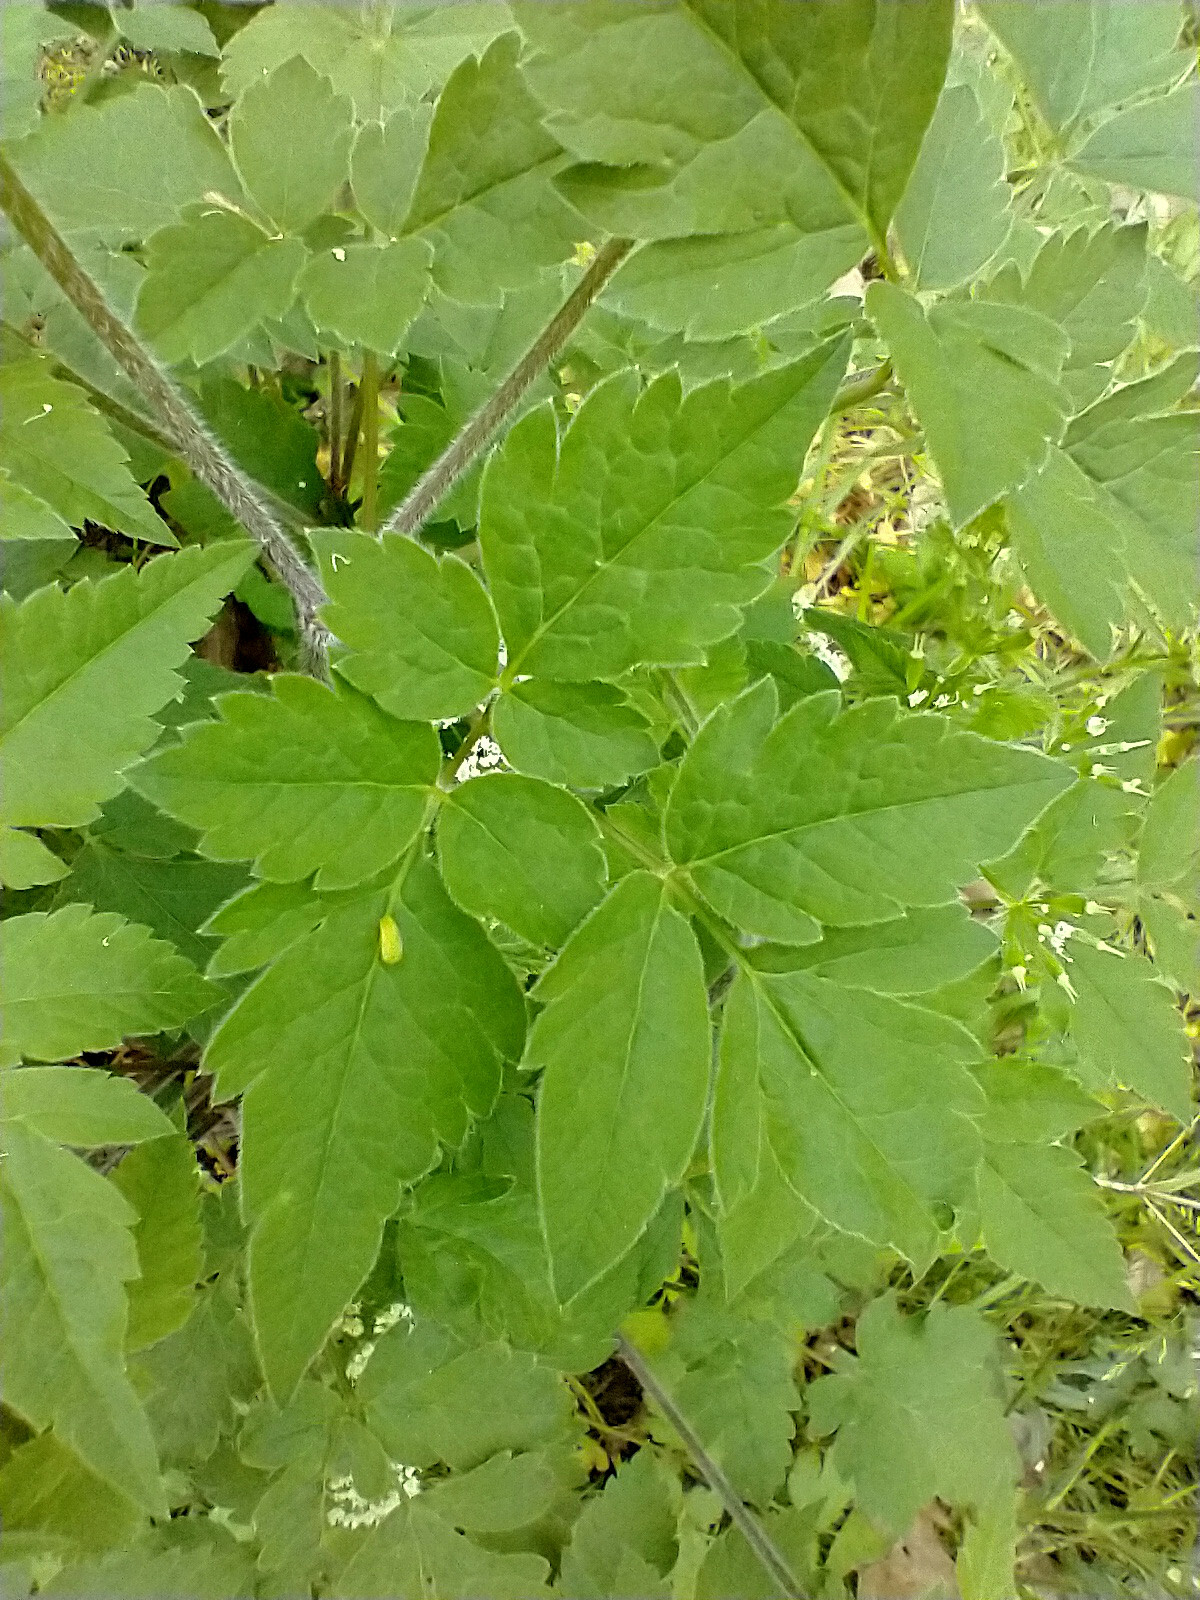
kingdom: Plantae
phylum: Tracheophyta
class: Magnoliopsida
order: Apiales
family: Apiaceae
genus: Osmorhiza
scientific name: Osmorhiza longistylis
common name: Smooth sweet cicely
